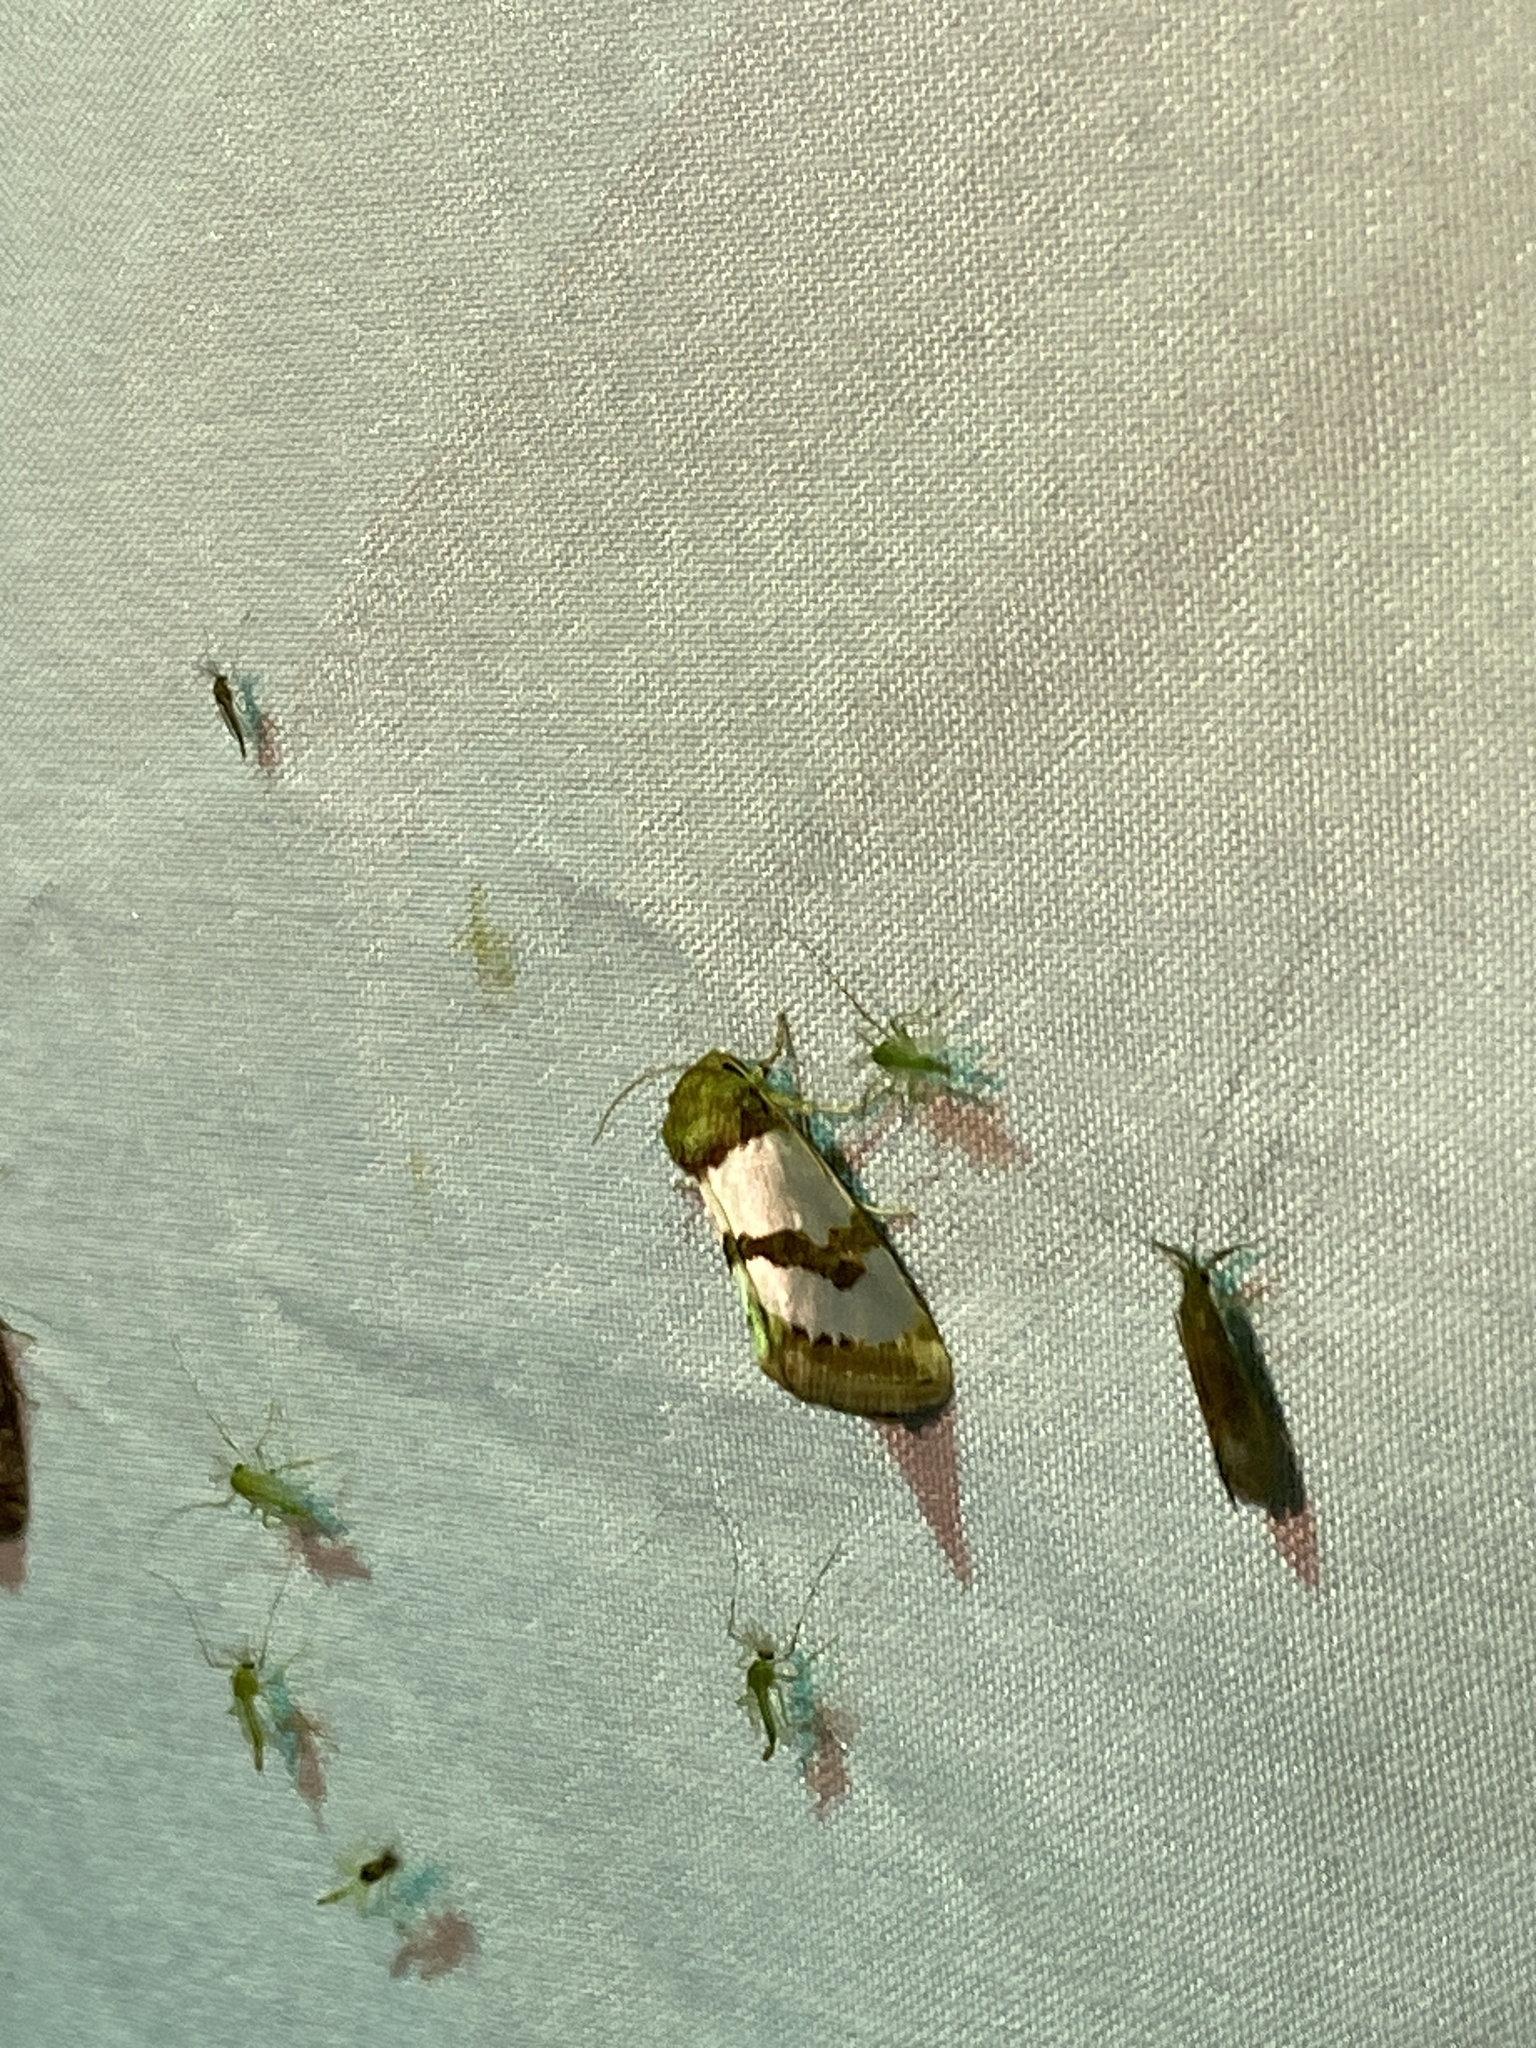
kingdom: Animalia
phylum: Arthropoda
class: Insecta
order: Lepidoptera
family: Noctuidae
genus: Schinia
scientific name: Schinia chrysellus
